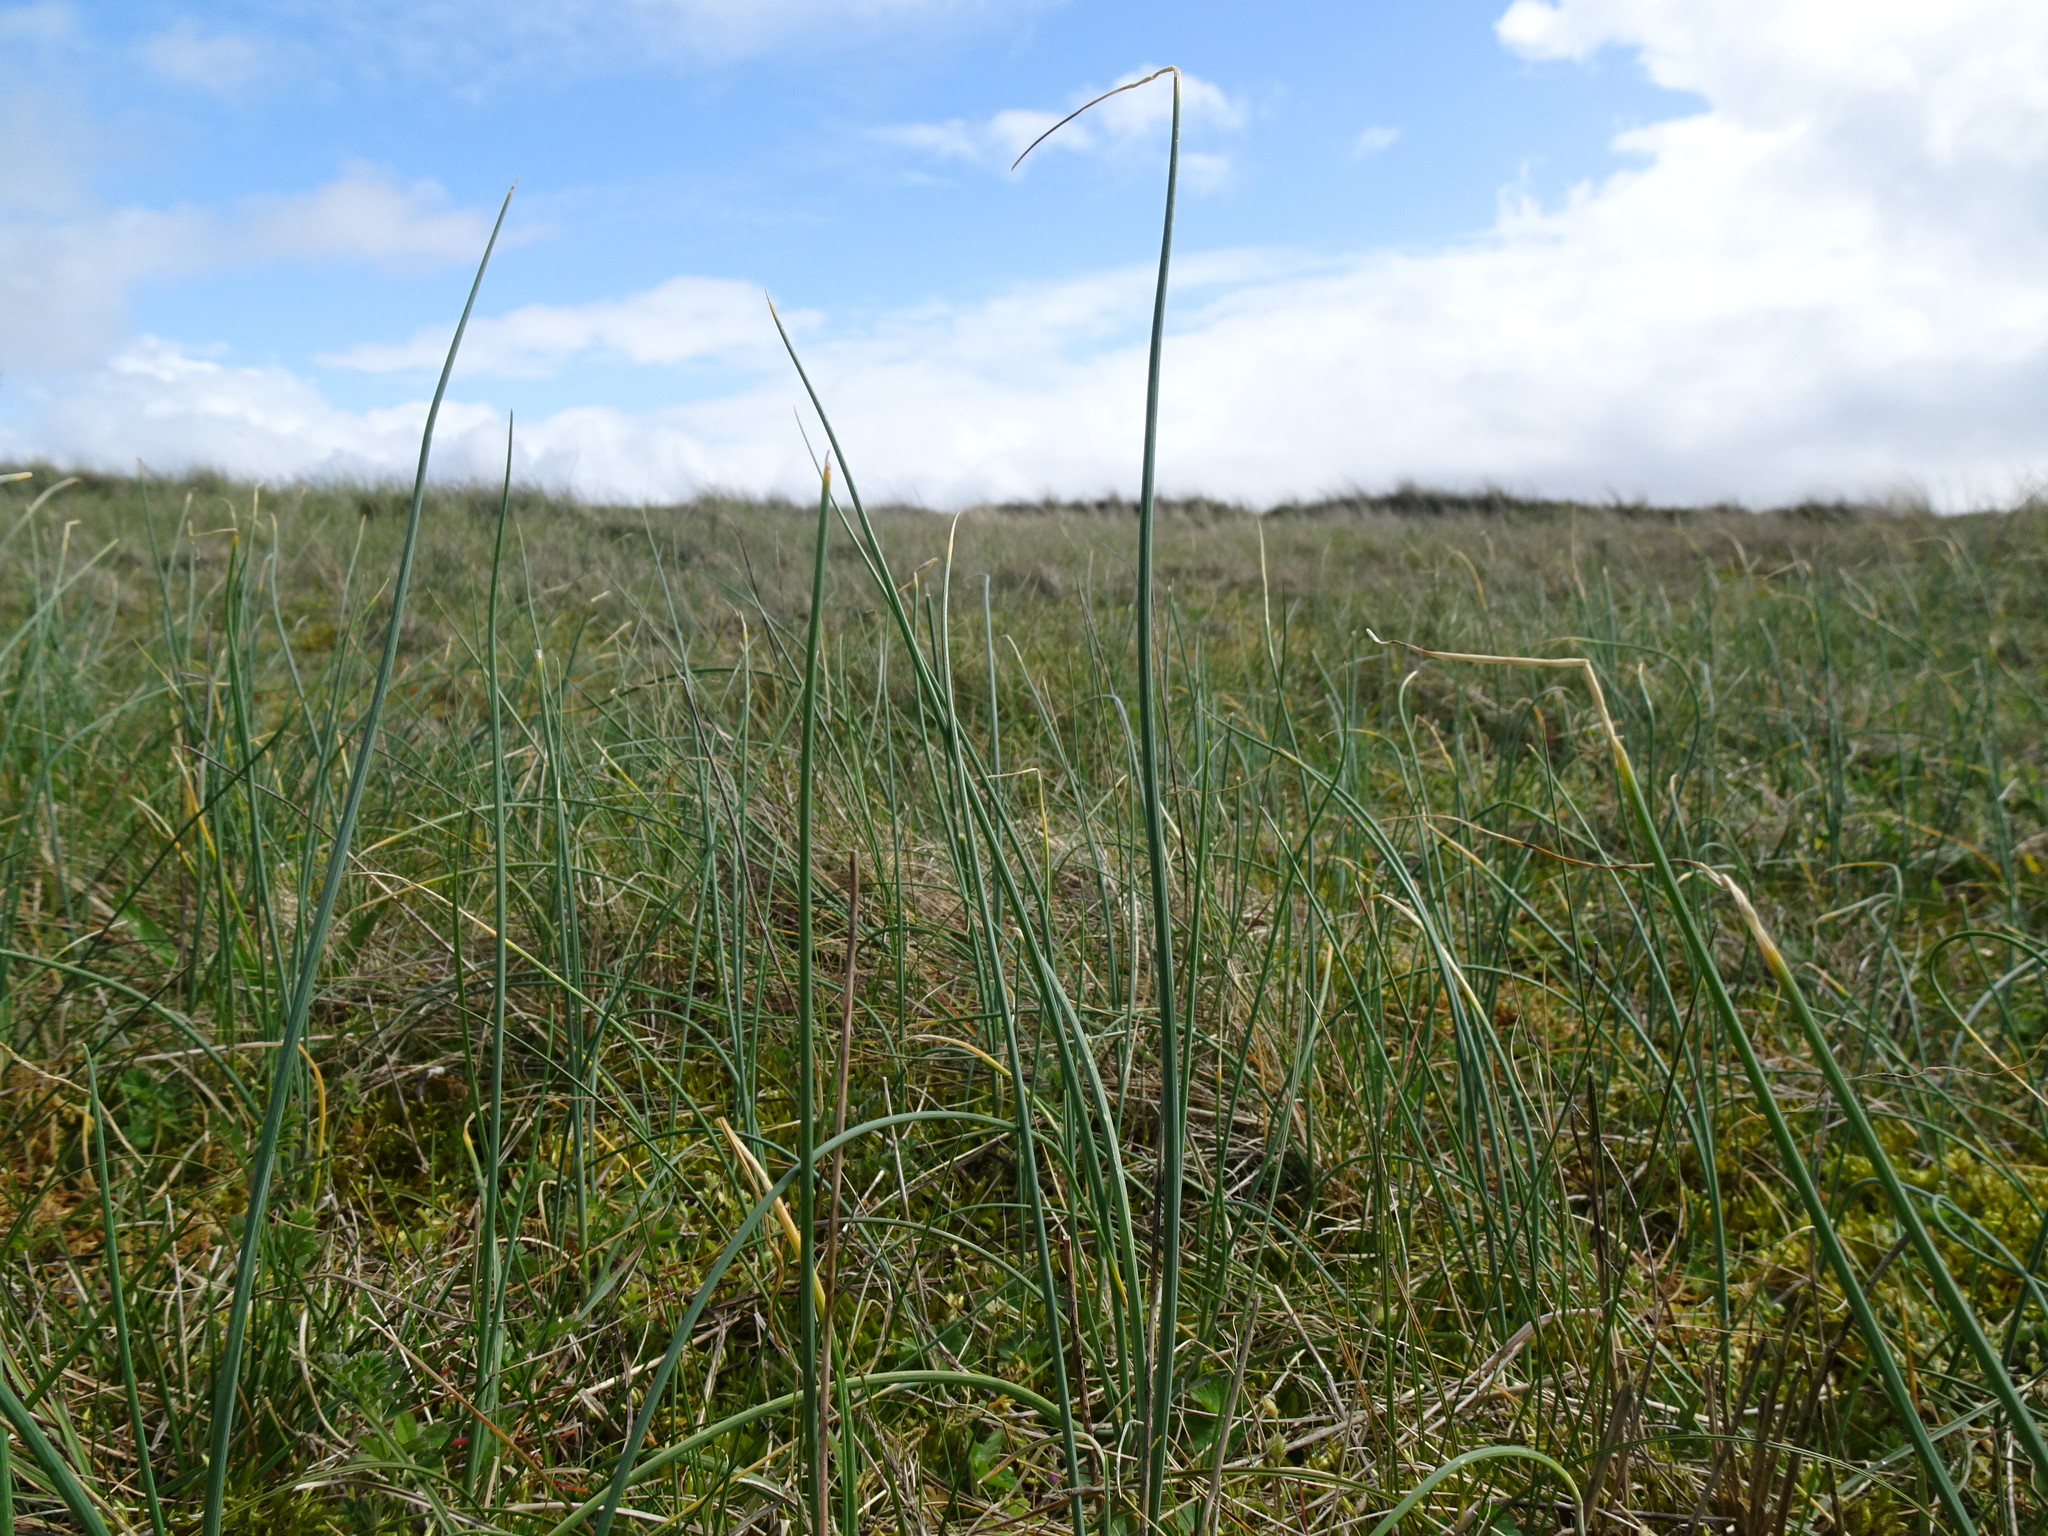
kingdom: Plantae
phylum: Tracheophyta
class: Liliopsida
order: Asparagales
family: Amaryllidaceae
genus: Allium
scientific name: Allium vineale
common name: Crow garlic
